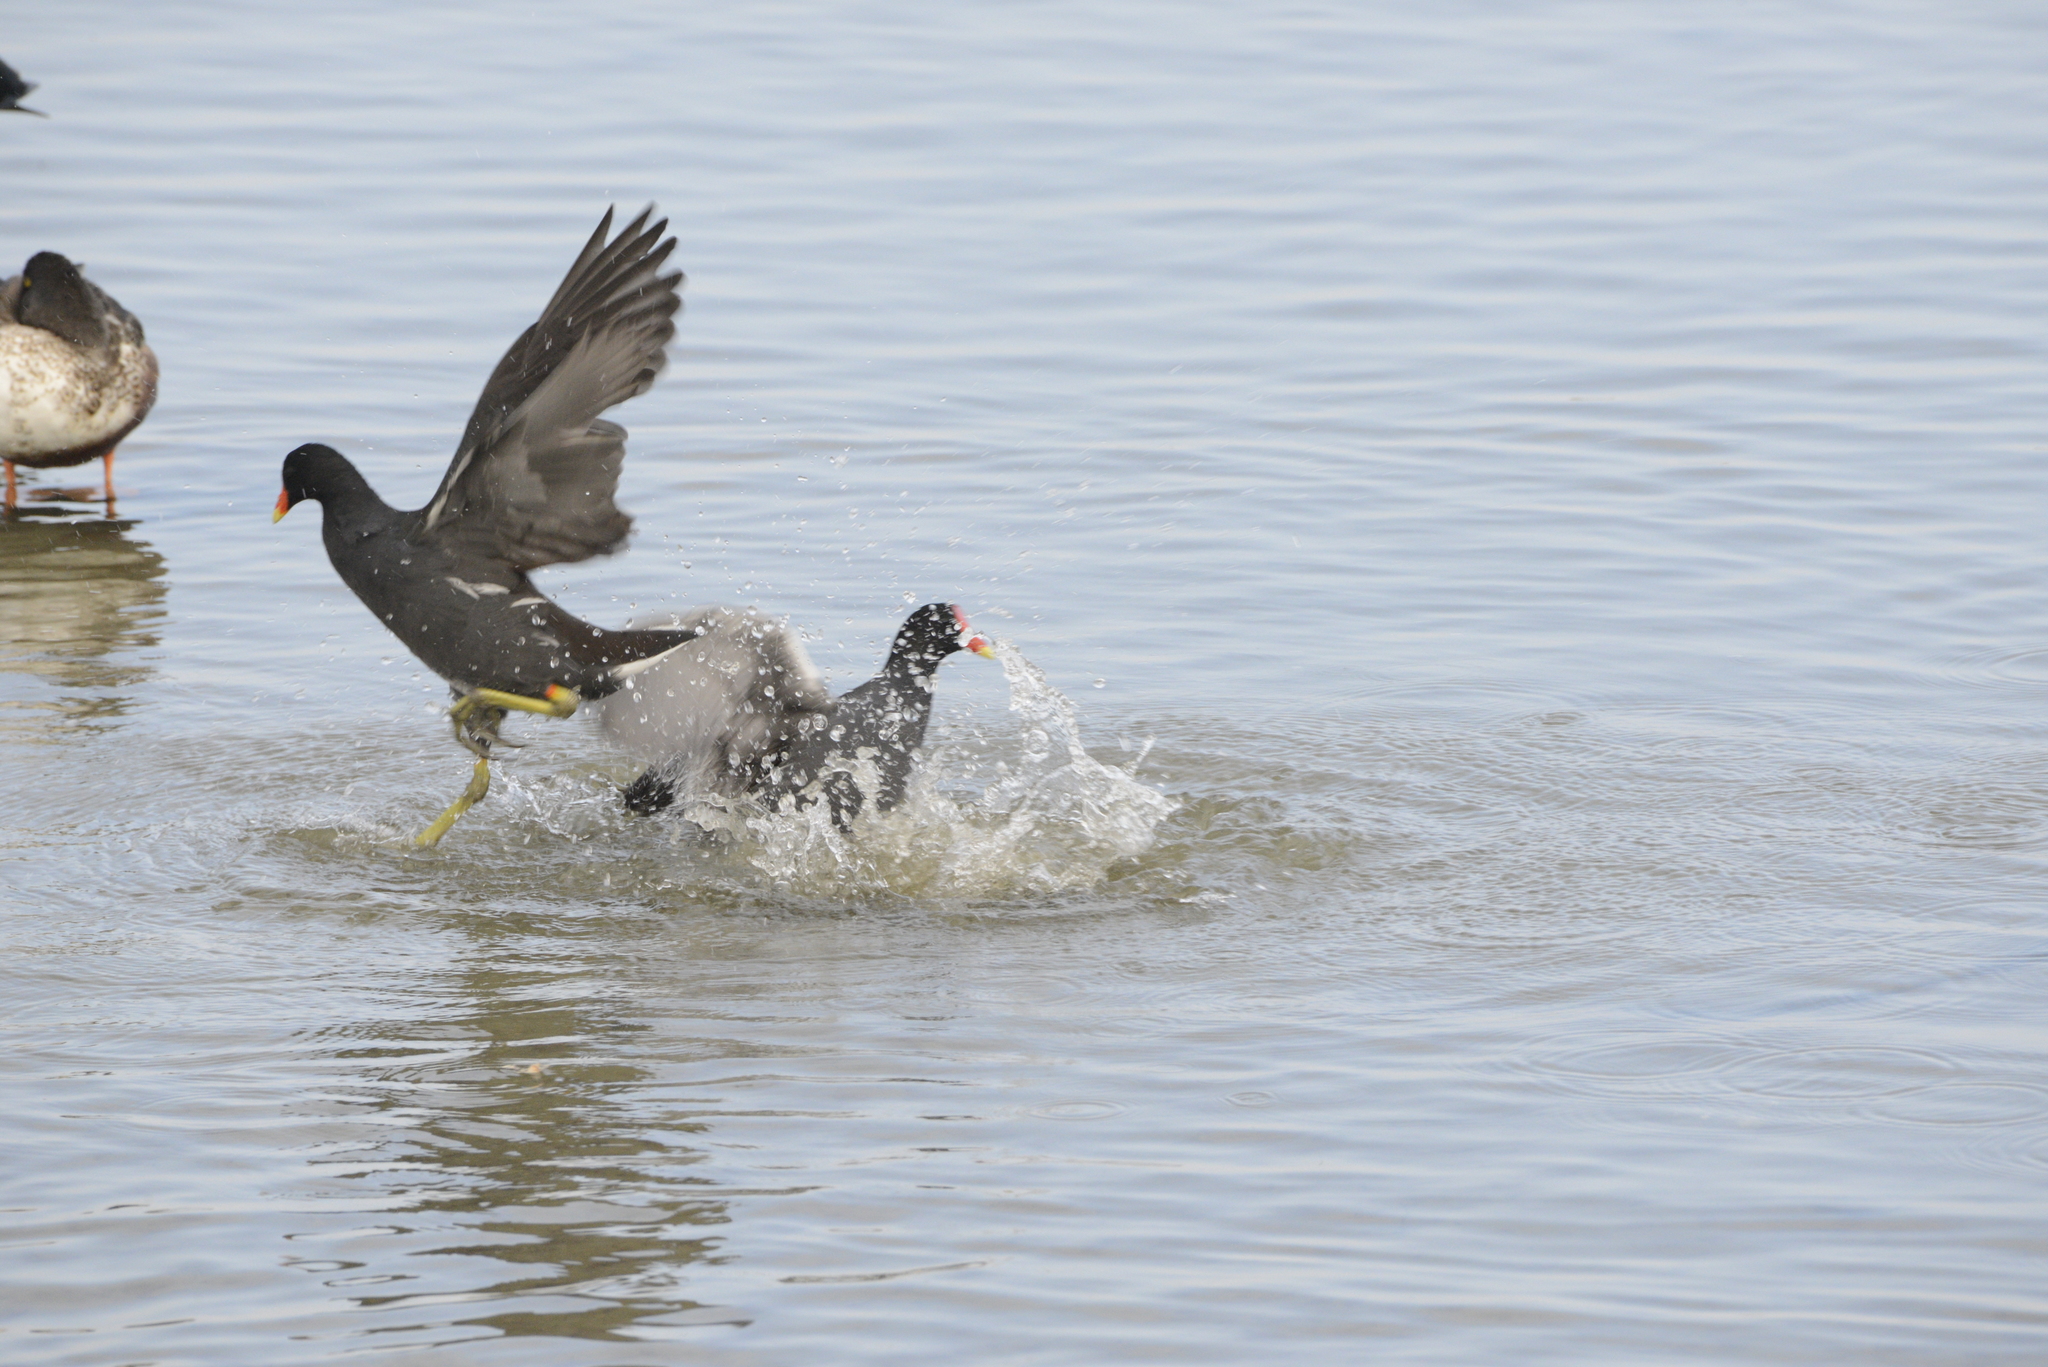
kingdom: Animalia
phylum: Chordata
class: Aves
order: Gruiformes
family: Rallidae
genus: Gallinula
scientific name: Gallinula chloropus
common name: Common moorhen
